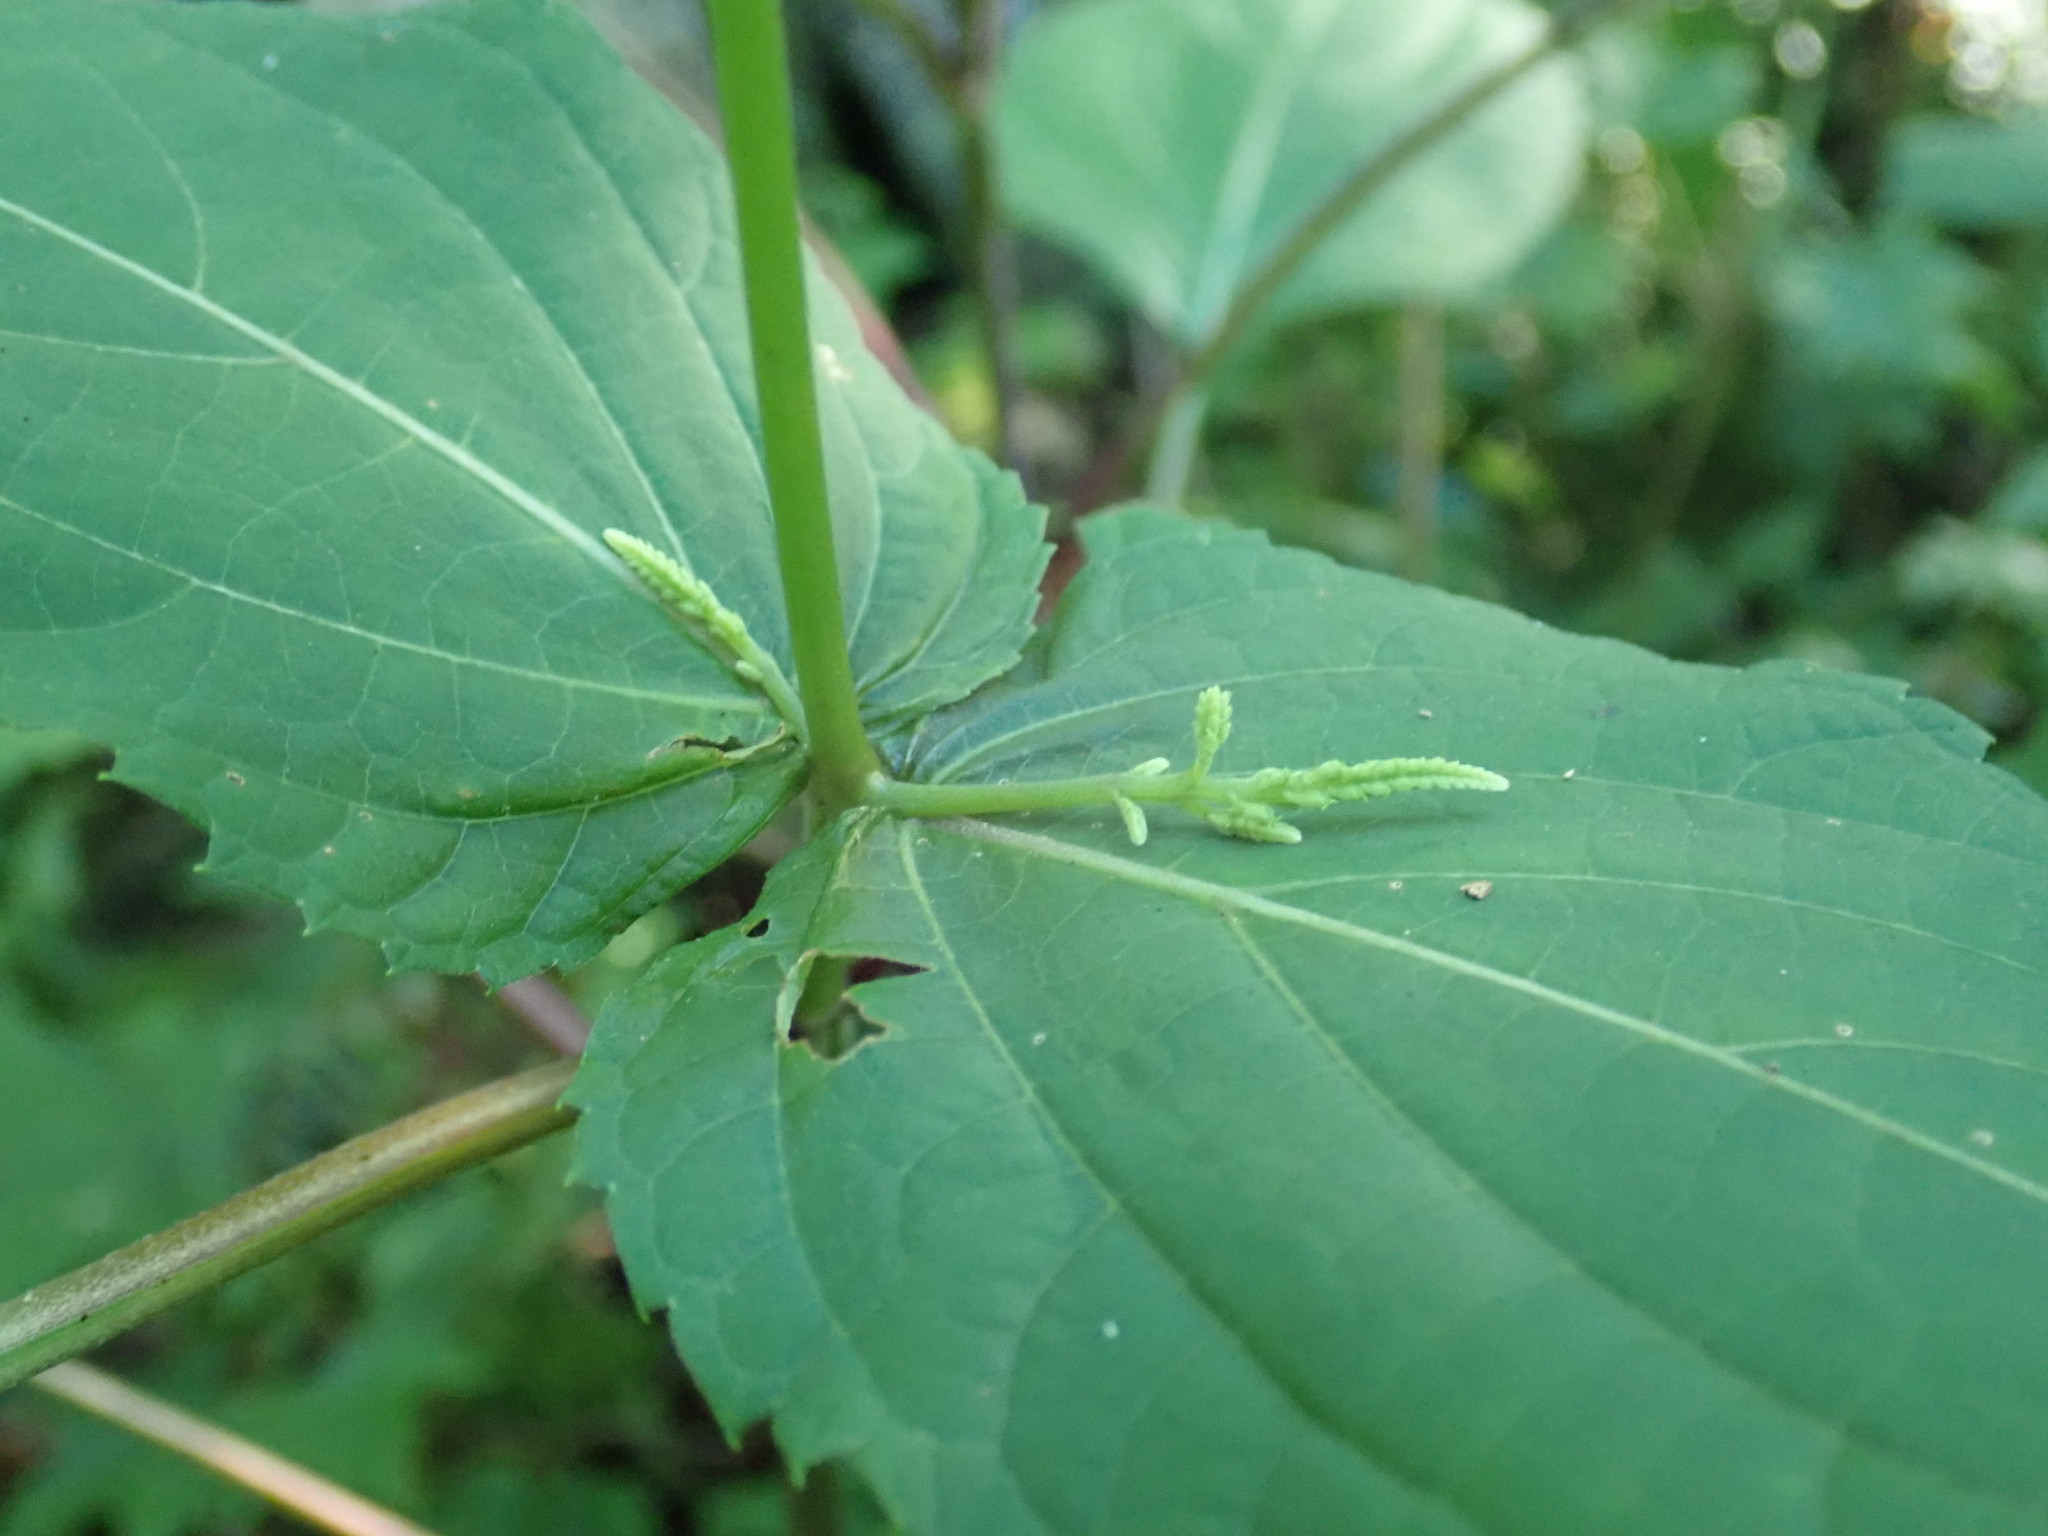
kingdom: Plantae
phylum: Tracheophyta
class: Magnoliopsida
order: Lamiales
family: Lamiaceae
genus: Collinsonia
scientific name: Collinsonia canadensis
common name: Northern horsebalm
